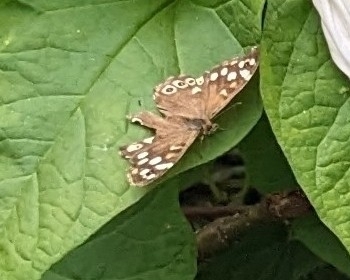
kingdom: Animalia
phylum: Arthropoda
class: Insecta
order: Lepidoptera
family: Nymphalidae
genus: Pararge
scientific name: Pararge aegeria
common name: Speckled wood
